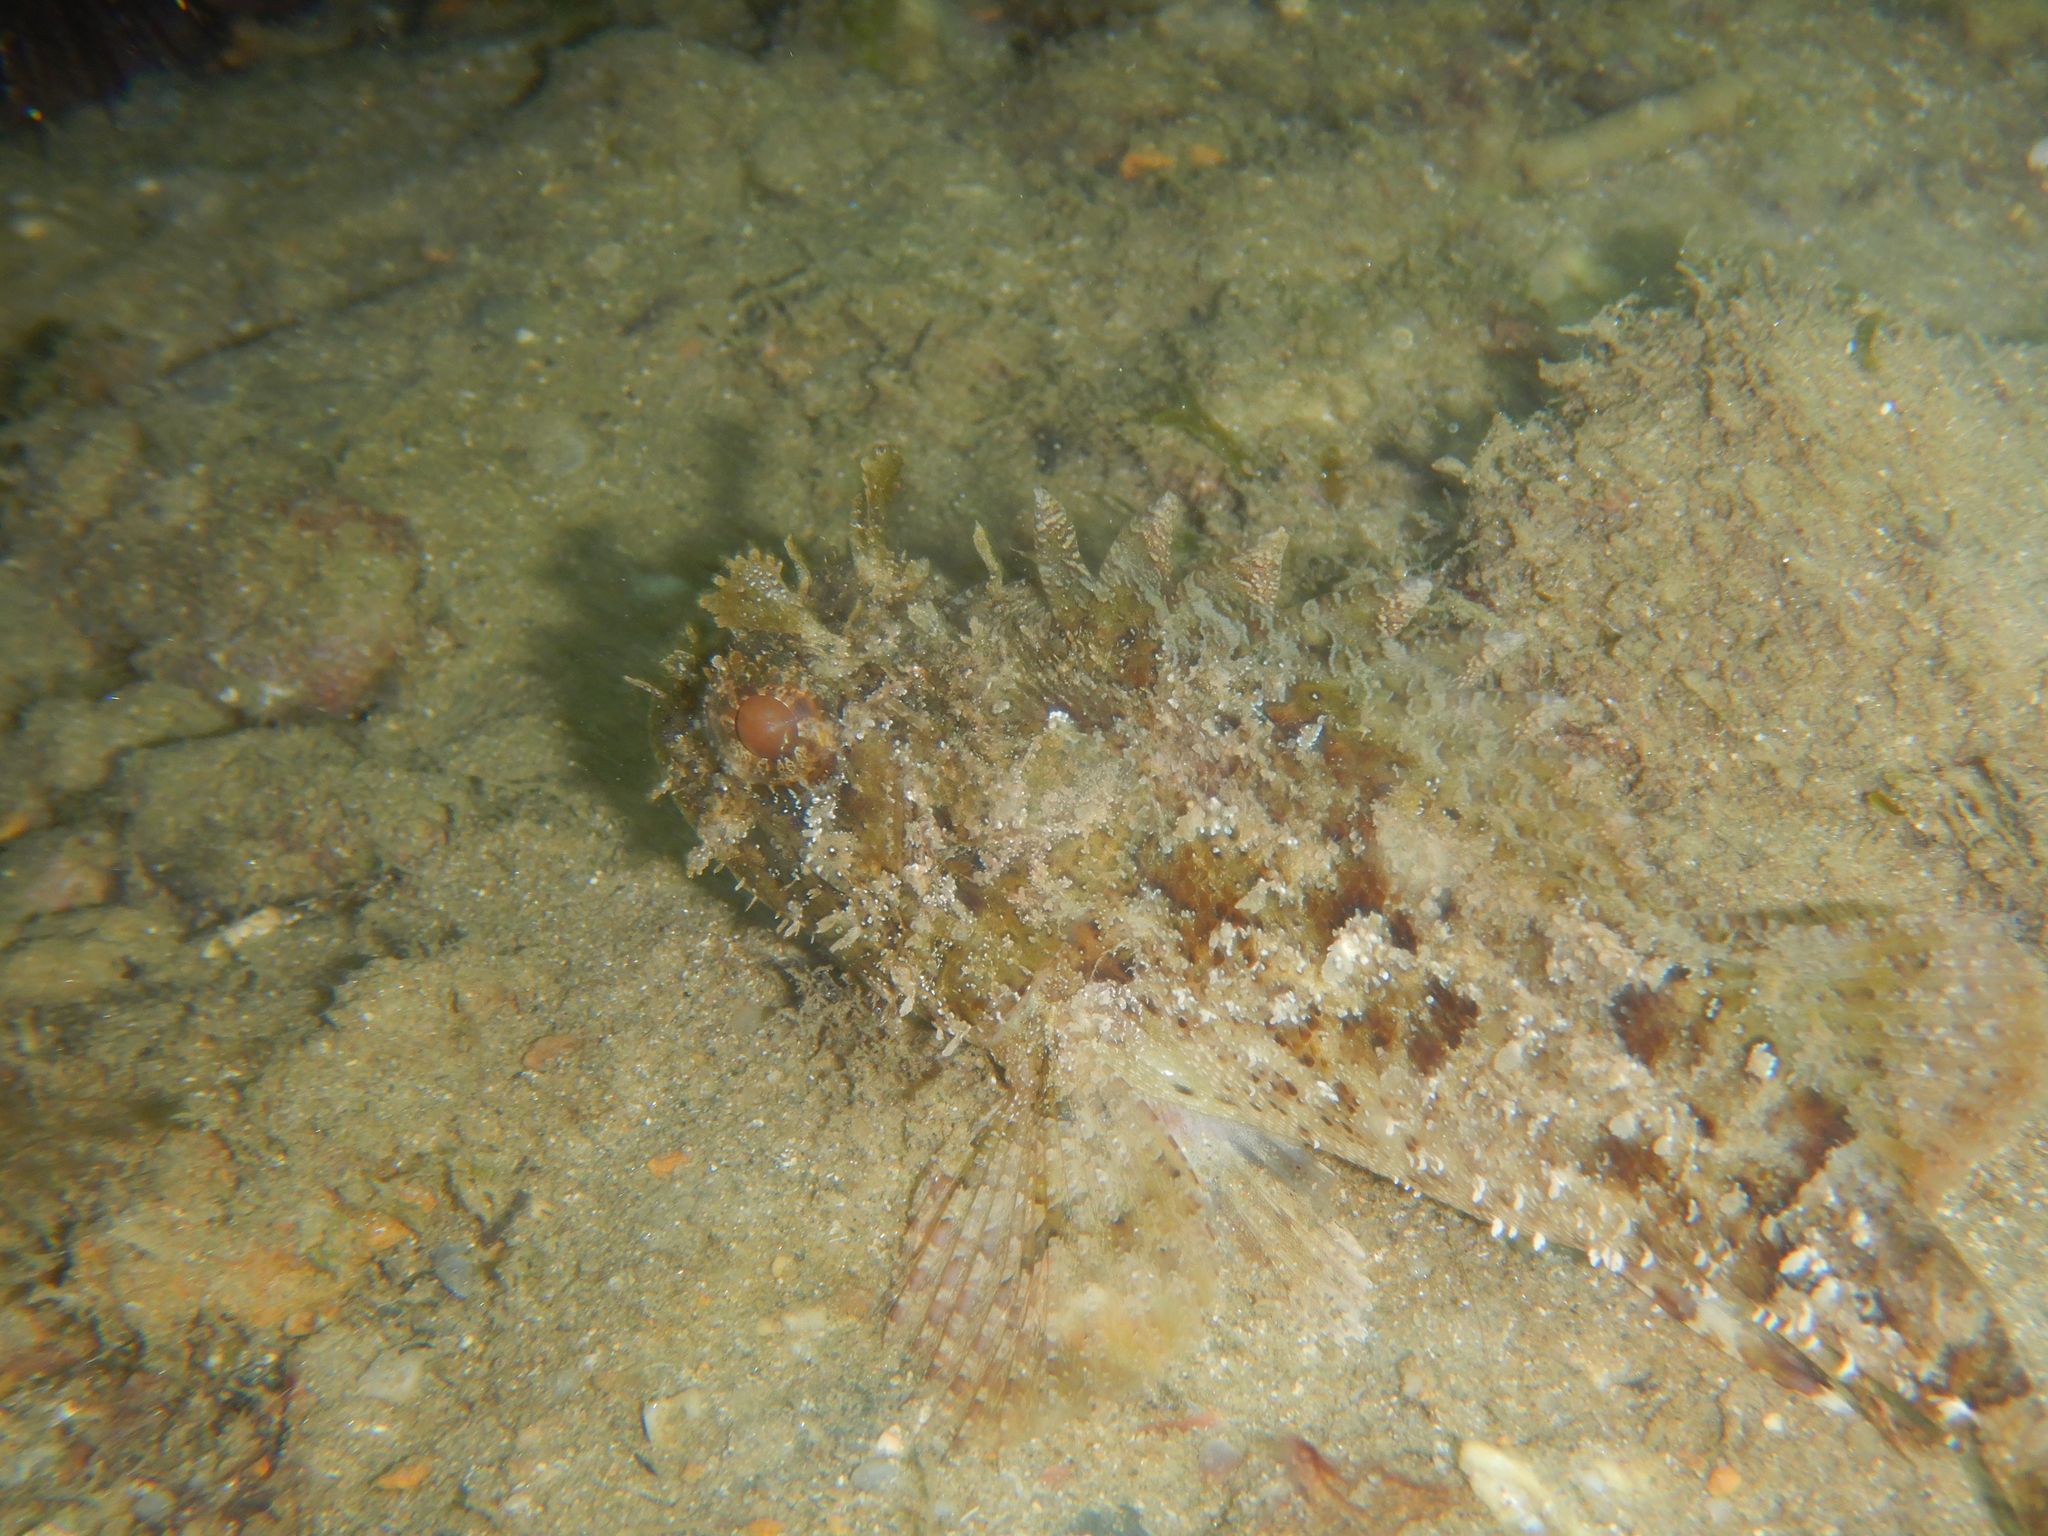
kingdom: Animalia
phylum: Chordata
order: Scorpaeniformes
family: Scorpaenidae
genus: Scorpaena
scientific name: Scorpaena porcus
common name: Black scorpionfish
